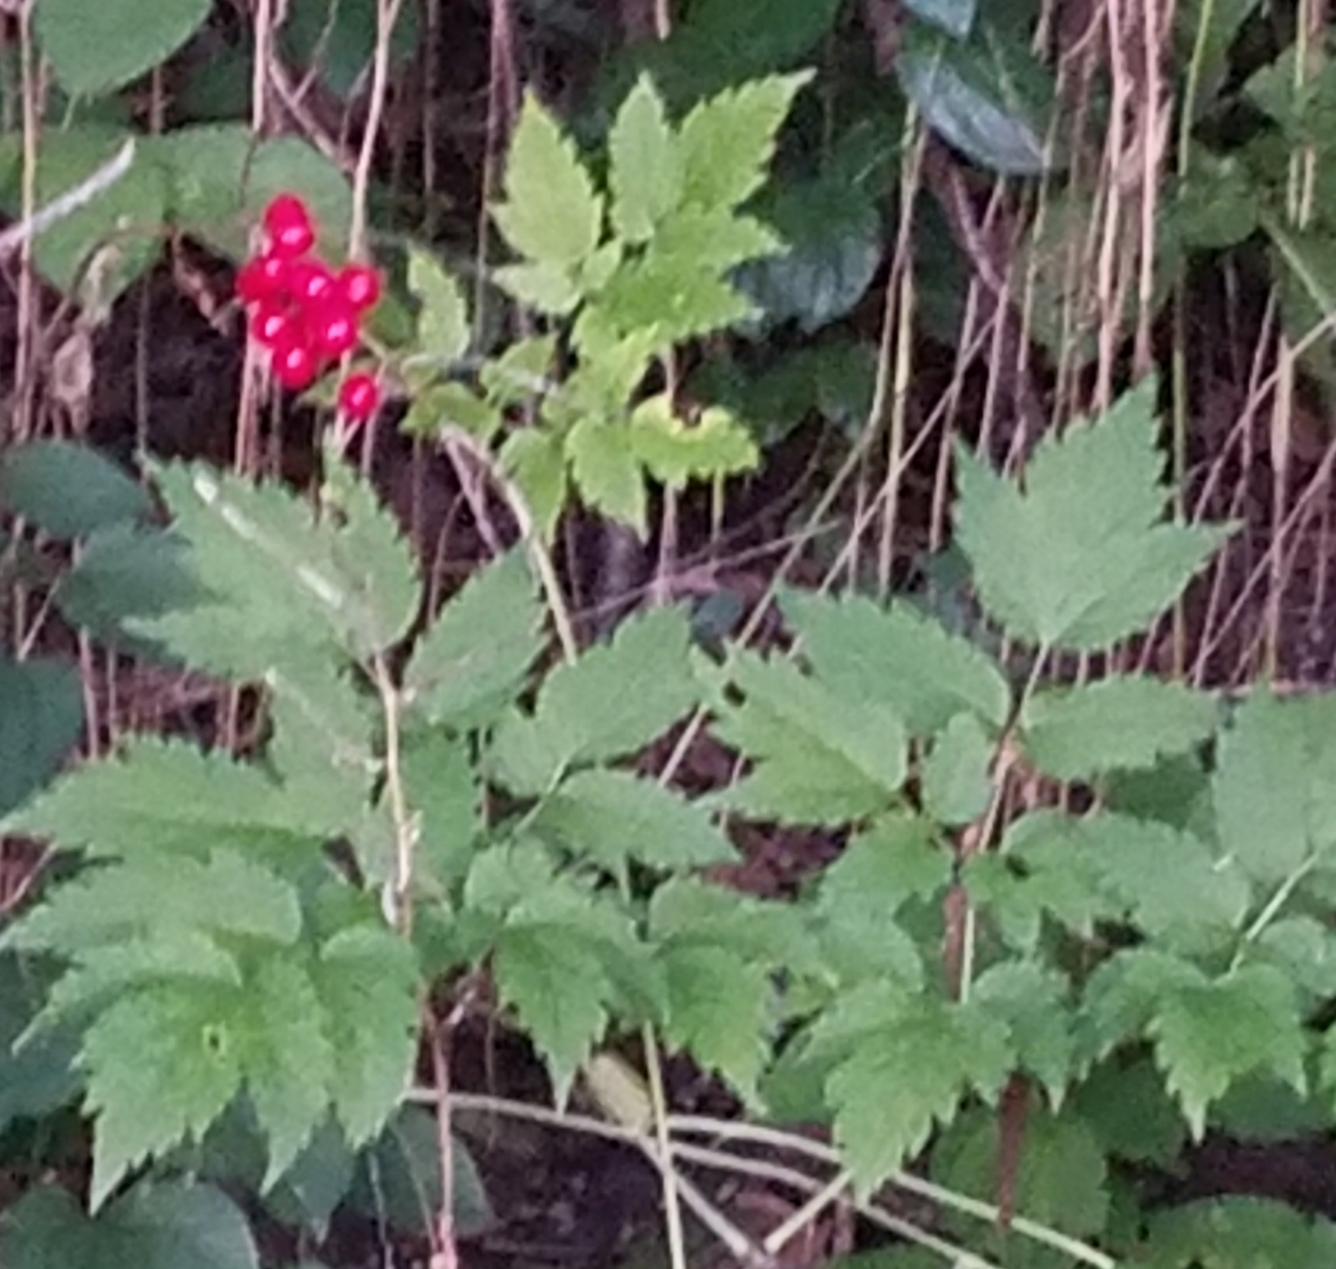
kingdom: Plantae
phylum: Tracheophyta
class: Magnoliopsida
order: Ranunculales
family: Ranunculaceae
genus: Actaea
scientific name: Actaea rubra
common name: Red baneberry
